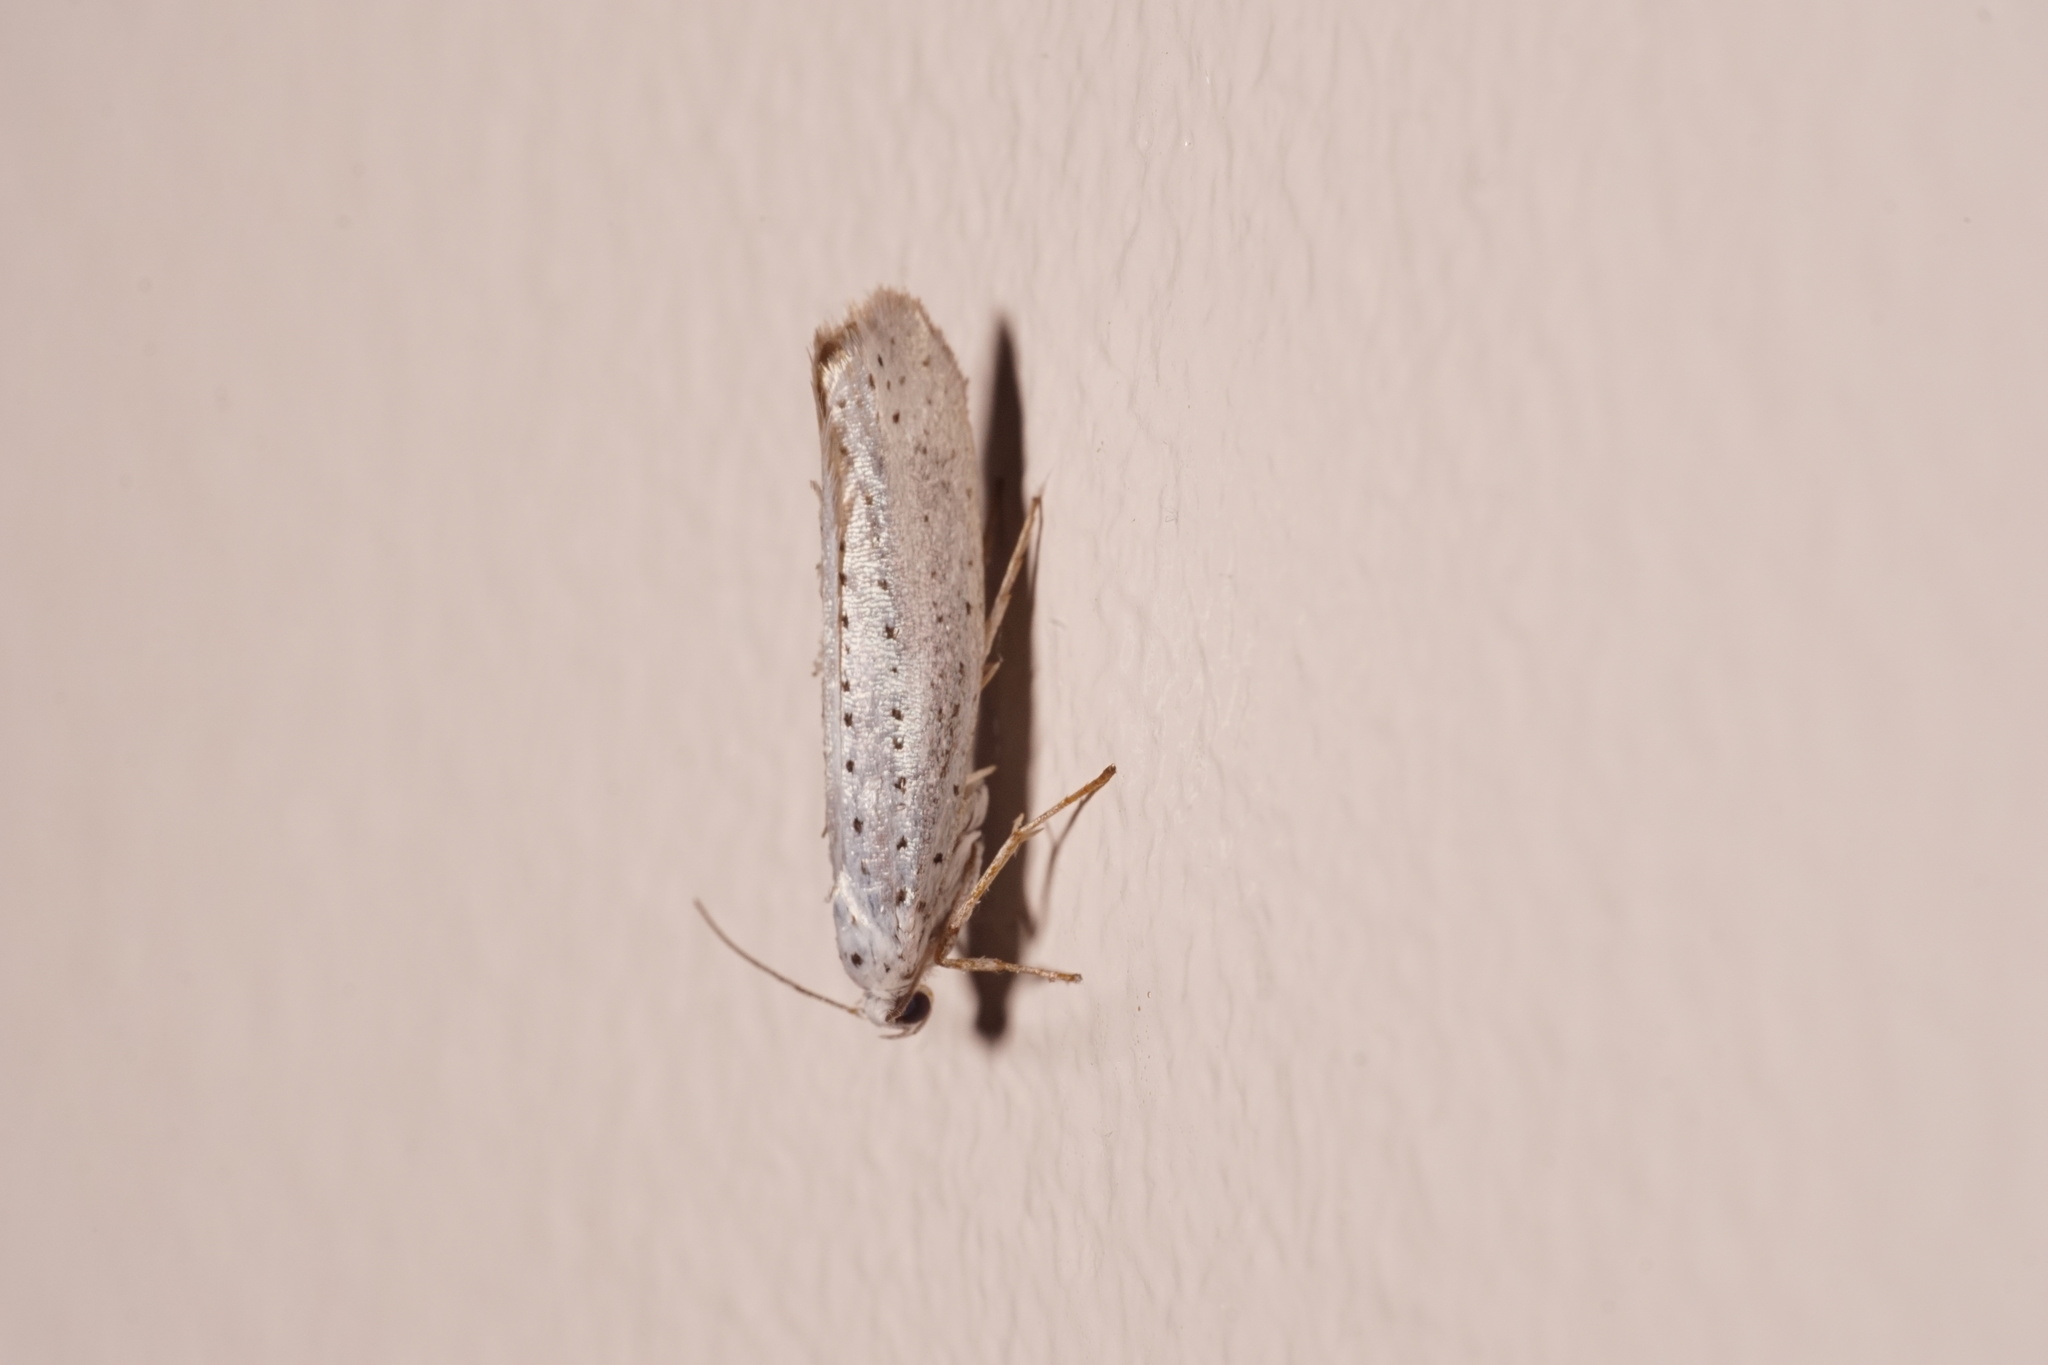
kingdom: Animalia
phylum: Arthropoda
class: Insecta
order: Lepidoptera
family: Yponomeutidae
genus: Yponomeuta
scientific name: Yponomeuta evonymella
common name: Bird-cherry ermine
